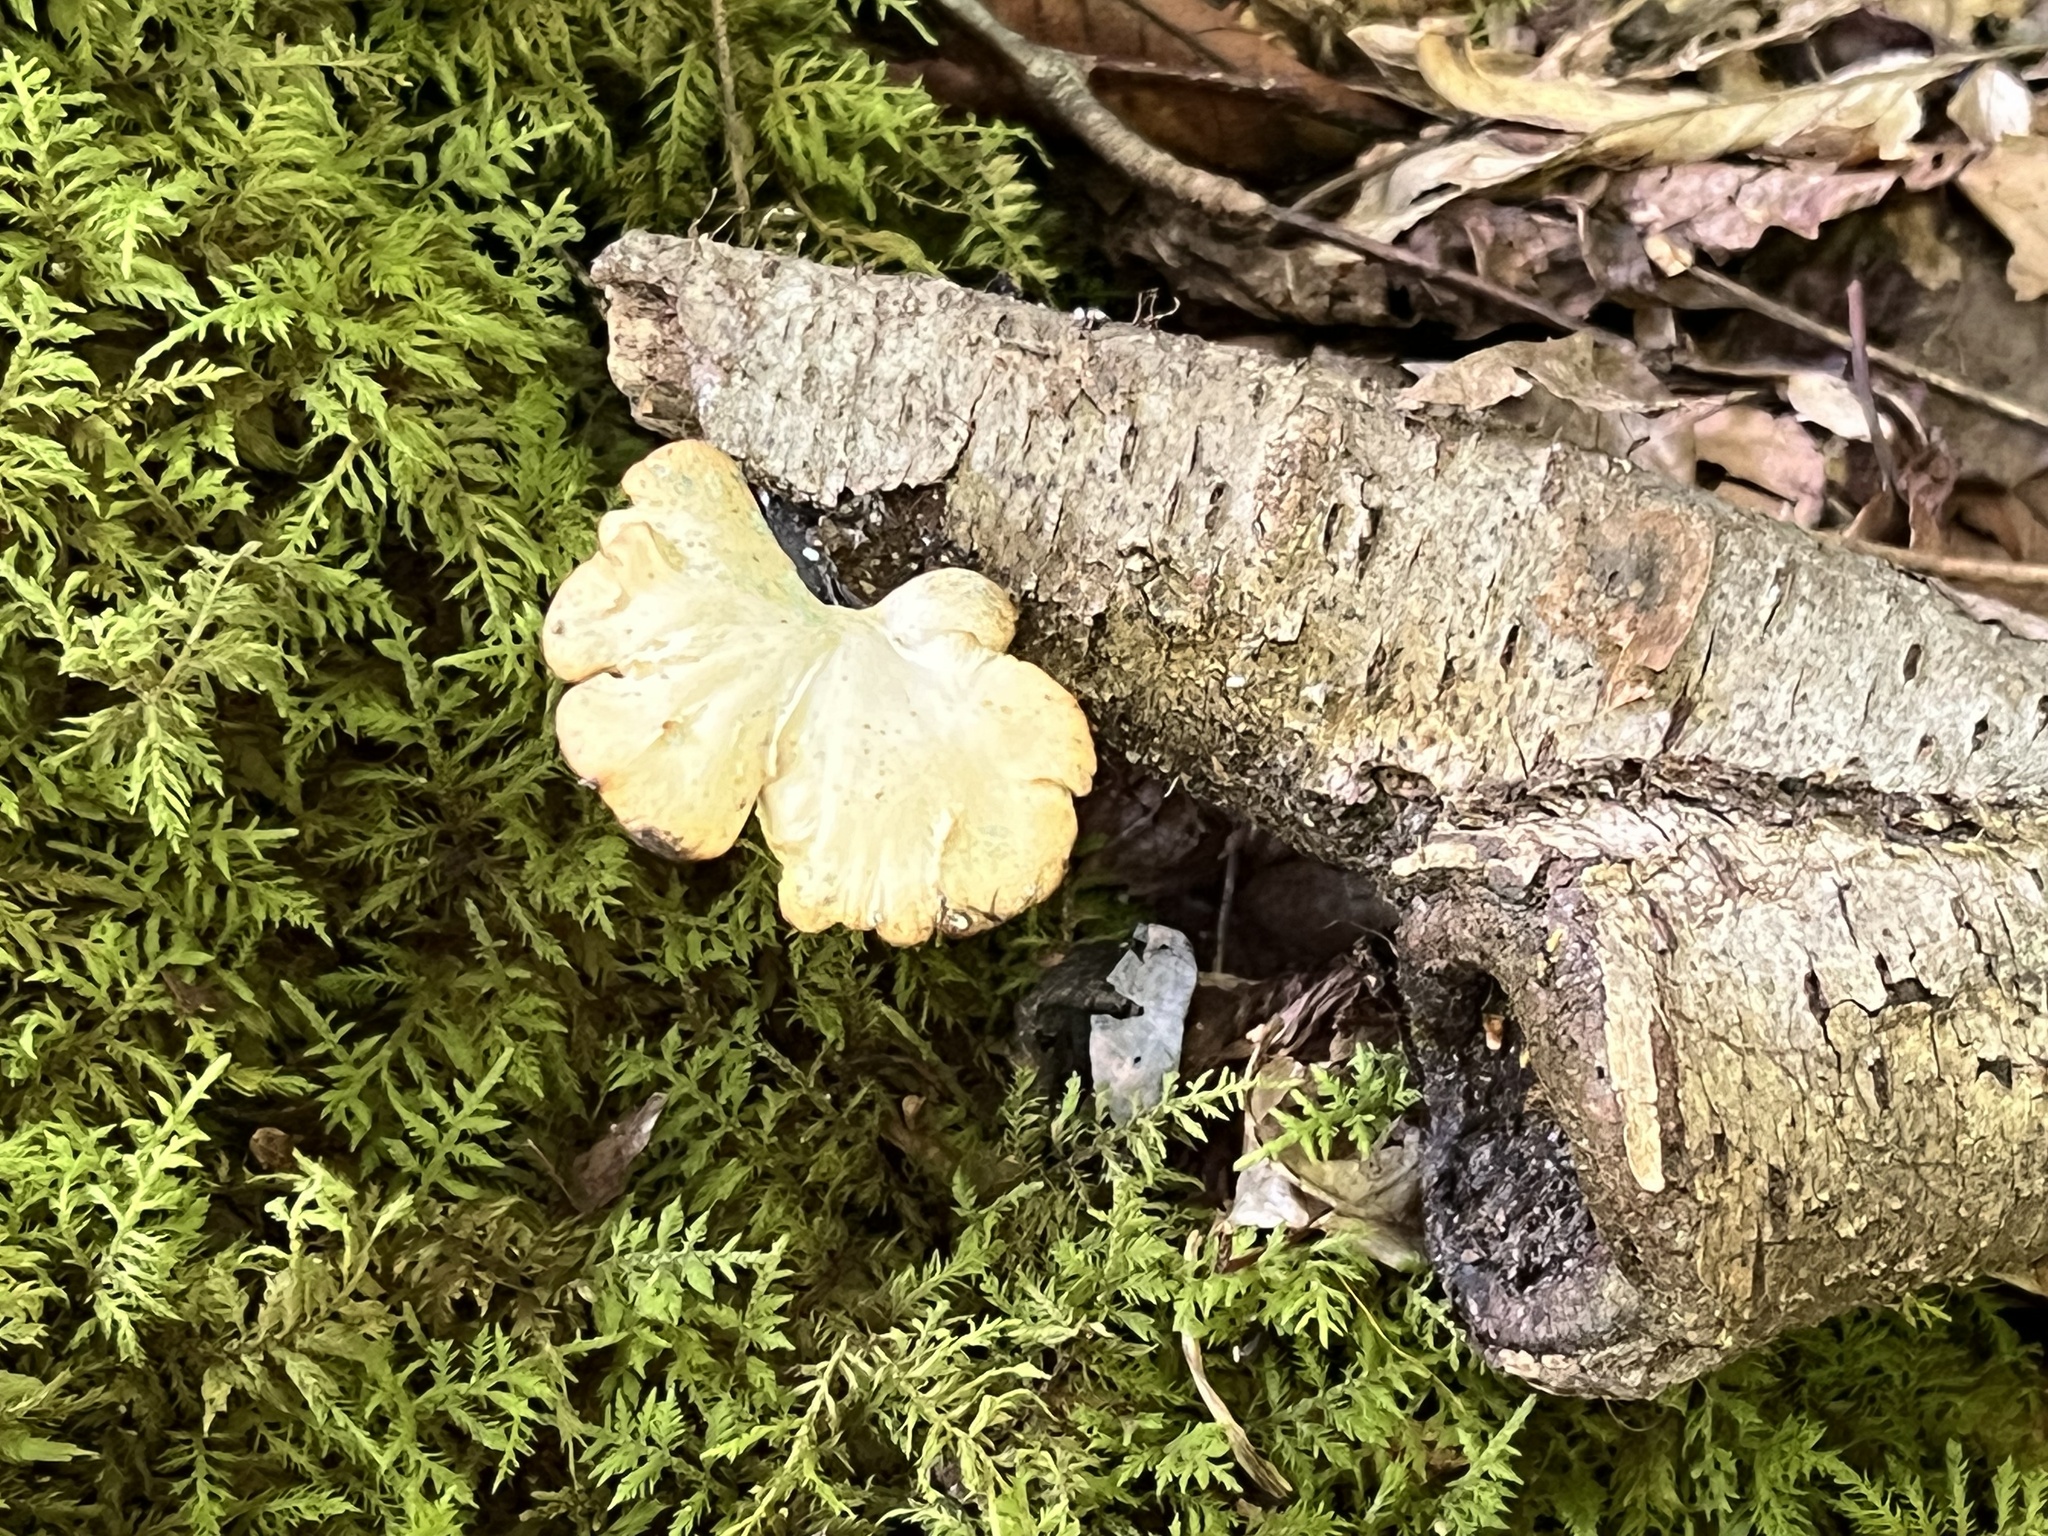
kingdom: Fungi
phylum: Basidiomycota
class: Agaricomycetes
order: Polyporales
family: Polyporaceae
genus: Cerioporus
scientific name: Cerioporus leptocephalus
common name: Blackfoot polypore
